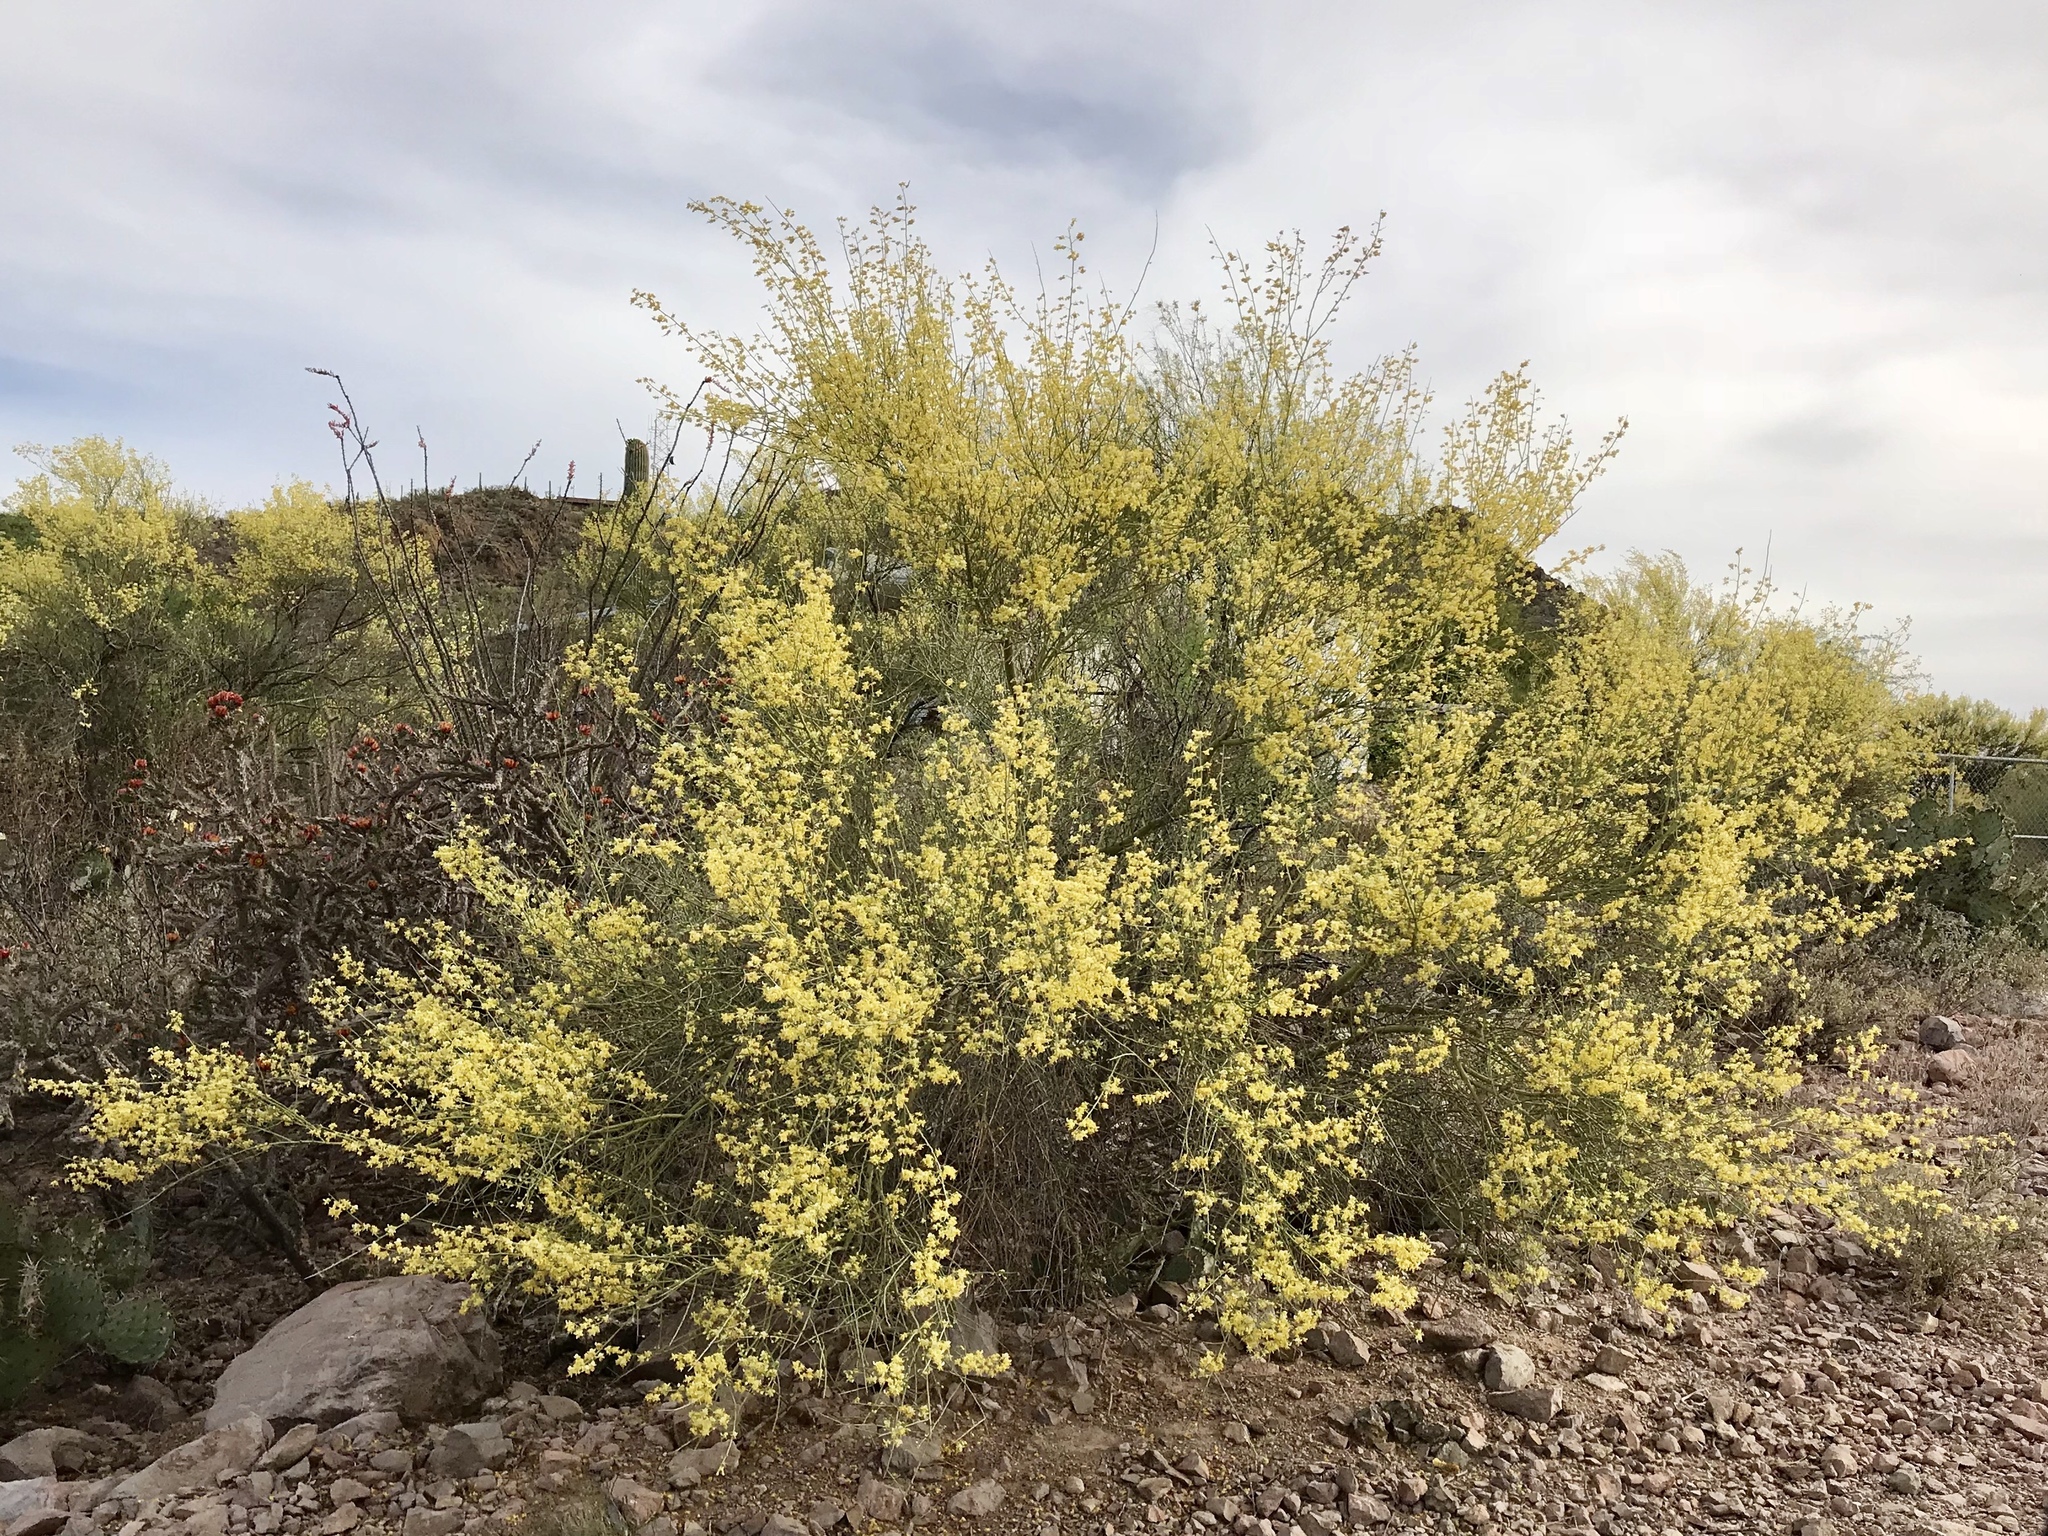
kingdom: Plantae
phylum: Tracheophyta
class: Magnoliopsida
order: Fabales
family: Fabaceae
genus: Parkinsonia
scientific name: Parkinsonia microphylla
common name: Yellow paloverde
